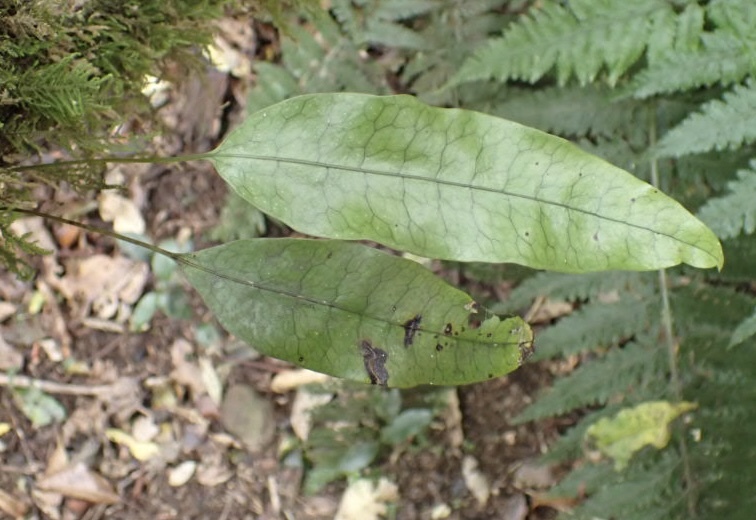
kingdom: Plantae
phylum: Tracheophyta
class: Polypodiopsida
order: Polypodiales
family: Polypodiaceae
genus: Lecanopteris
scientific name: Lecanopteris pustulata
